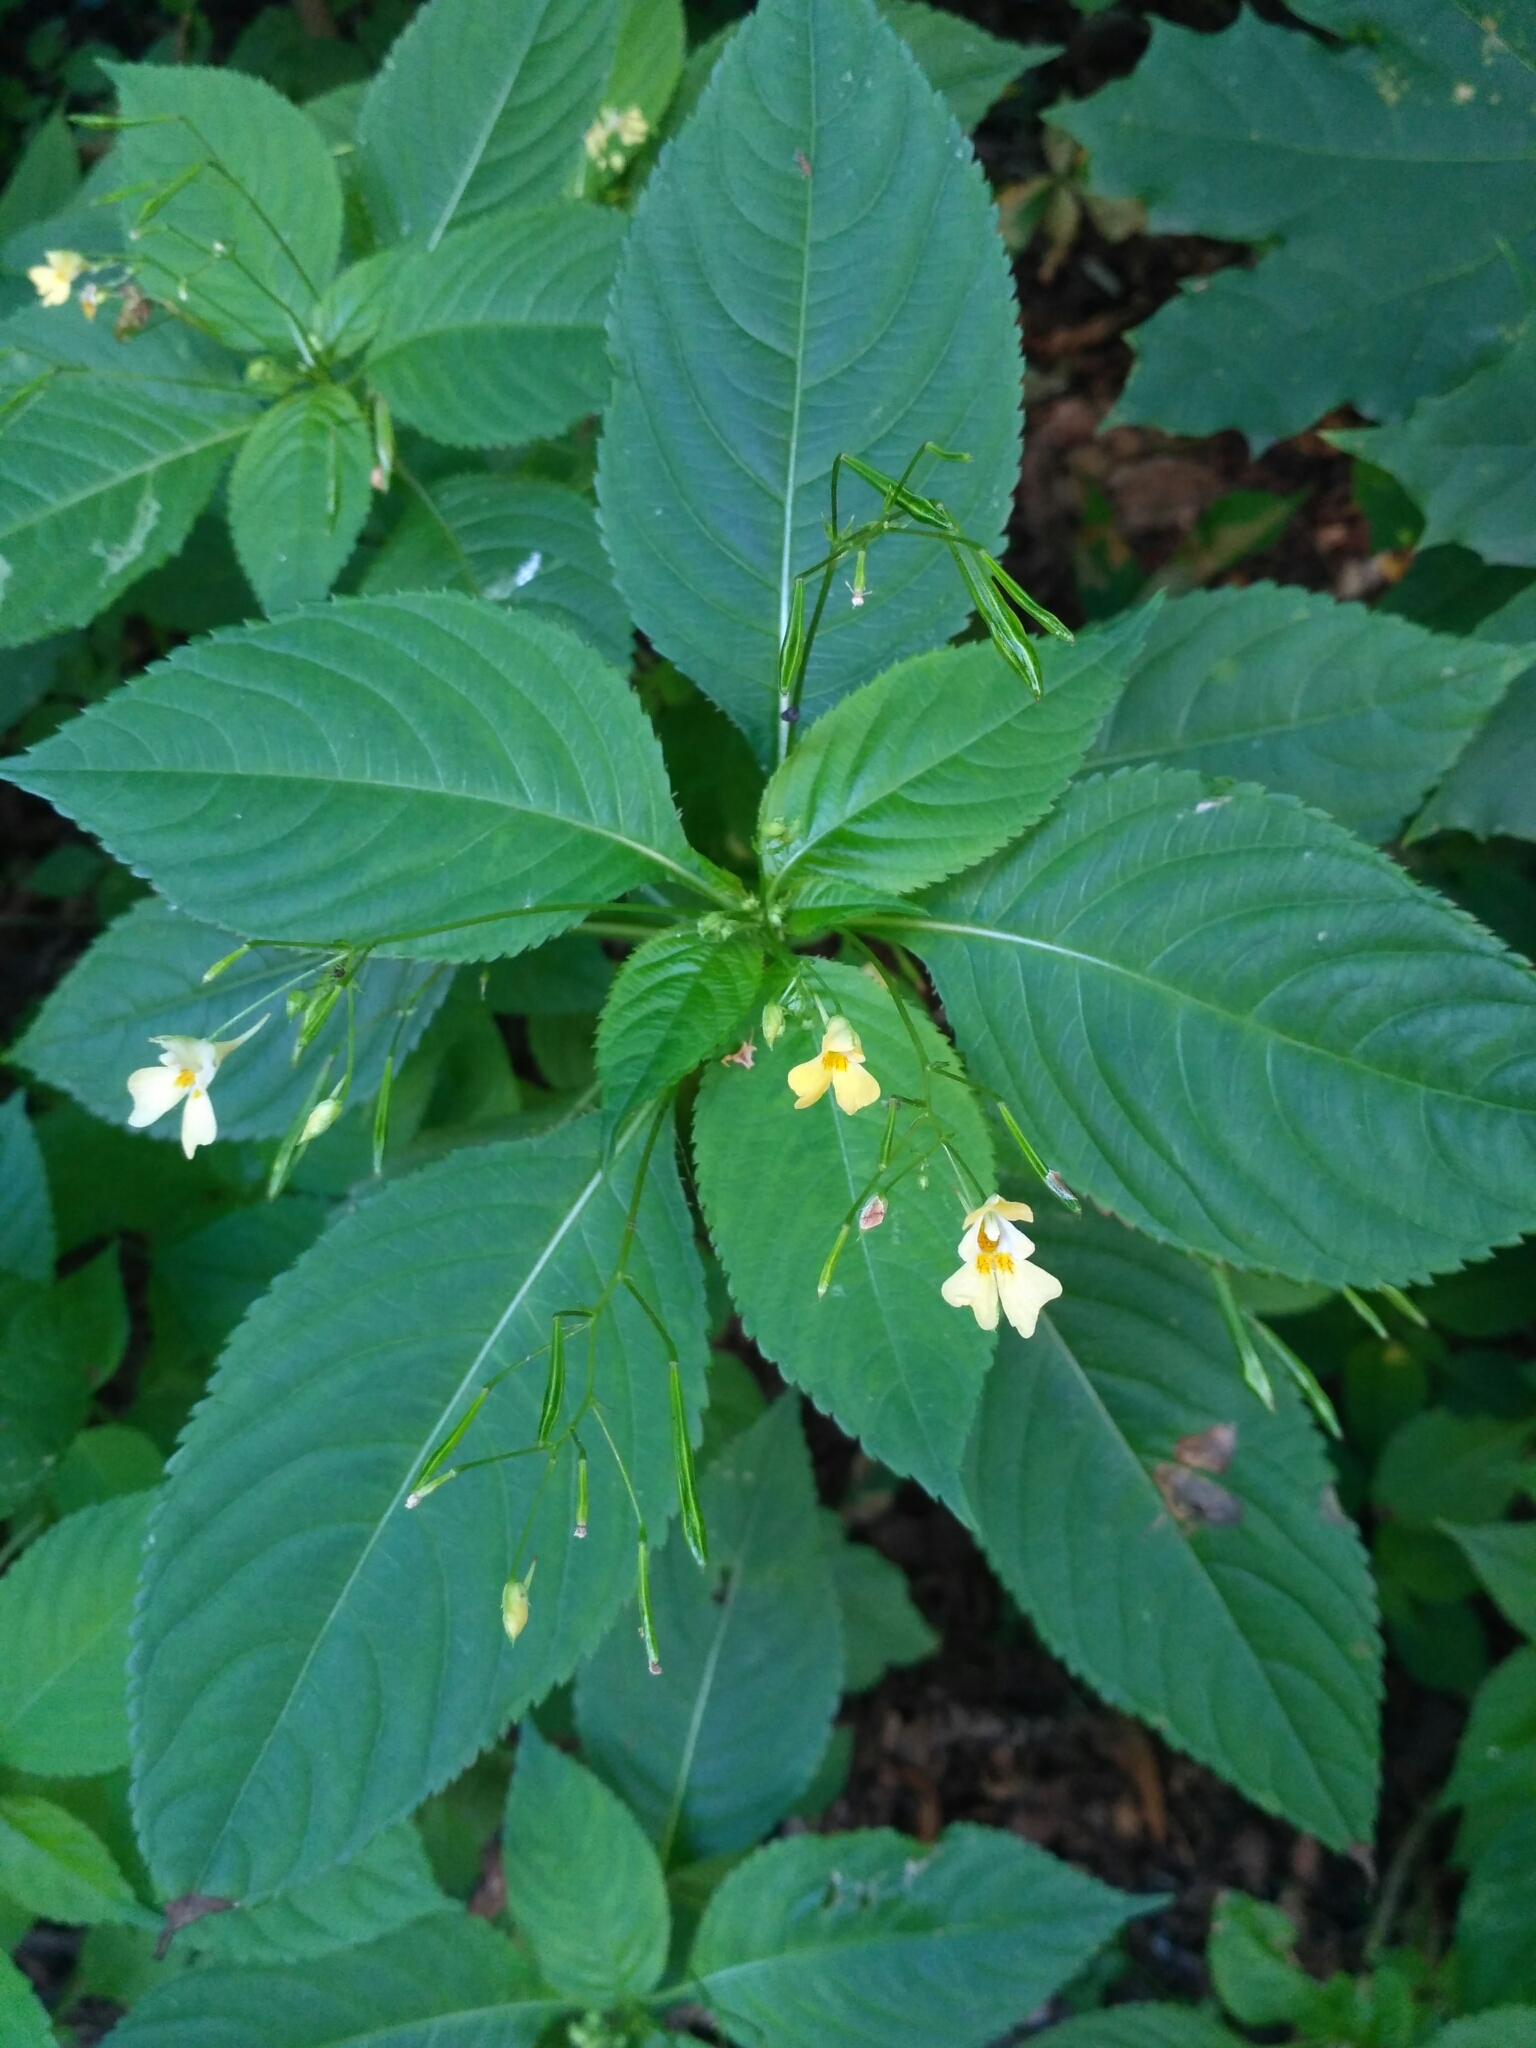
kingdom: Plantae
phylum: Tracheophyta
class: Magnoliopsida
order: Ericales
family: Balsaminaceae
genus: Impatiens
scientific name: Impatiens parviflora
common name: Small balsam
